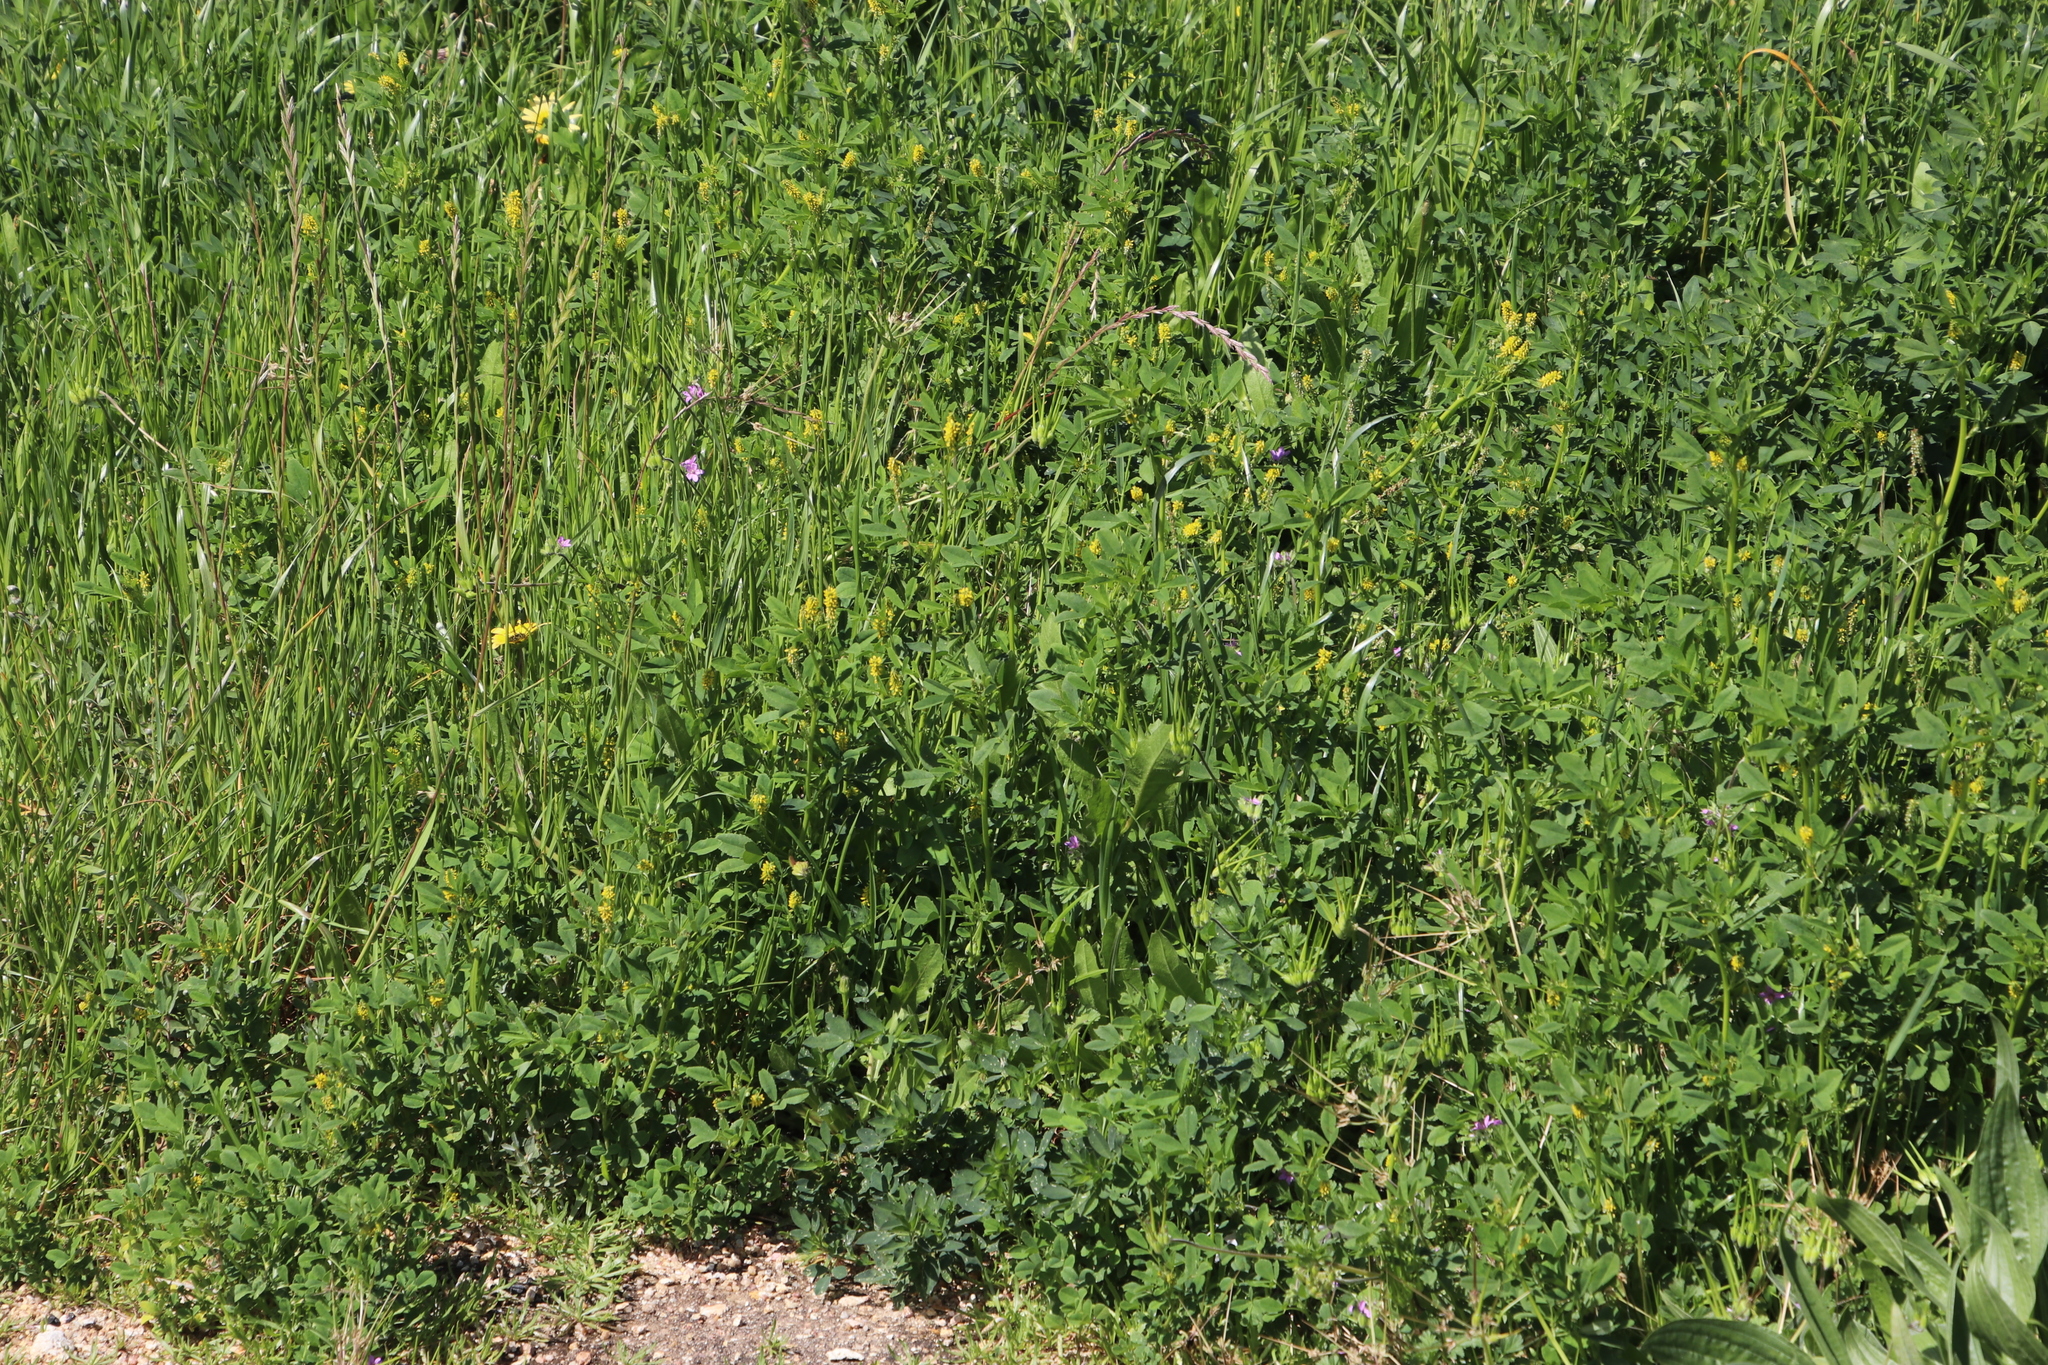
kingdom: Plantae
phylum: Tracheophyta
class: Magnoliopsida
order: Fabales
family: Fabaceae
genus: Melilotus
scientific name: Melilotus indicus
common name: Small melilot
